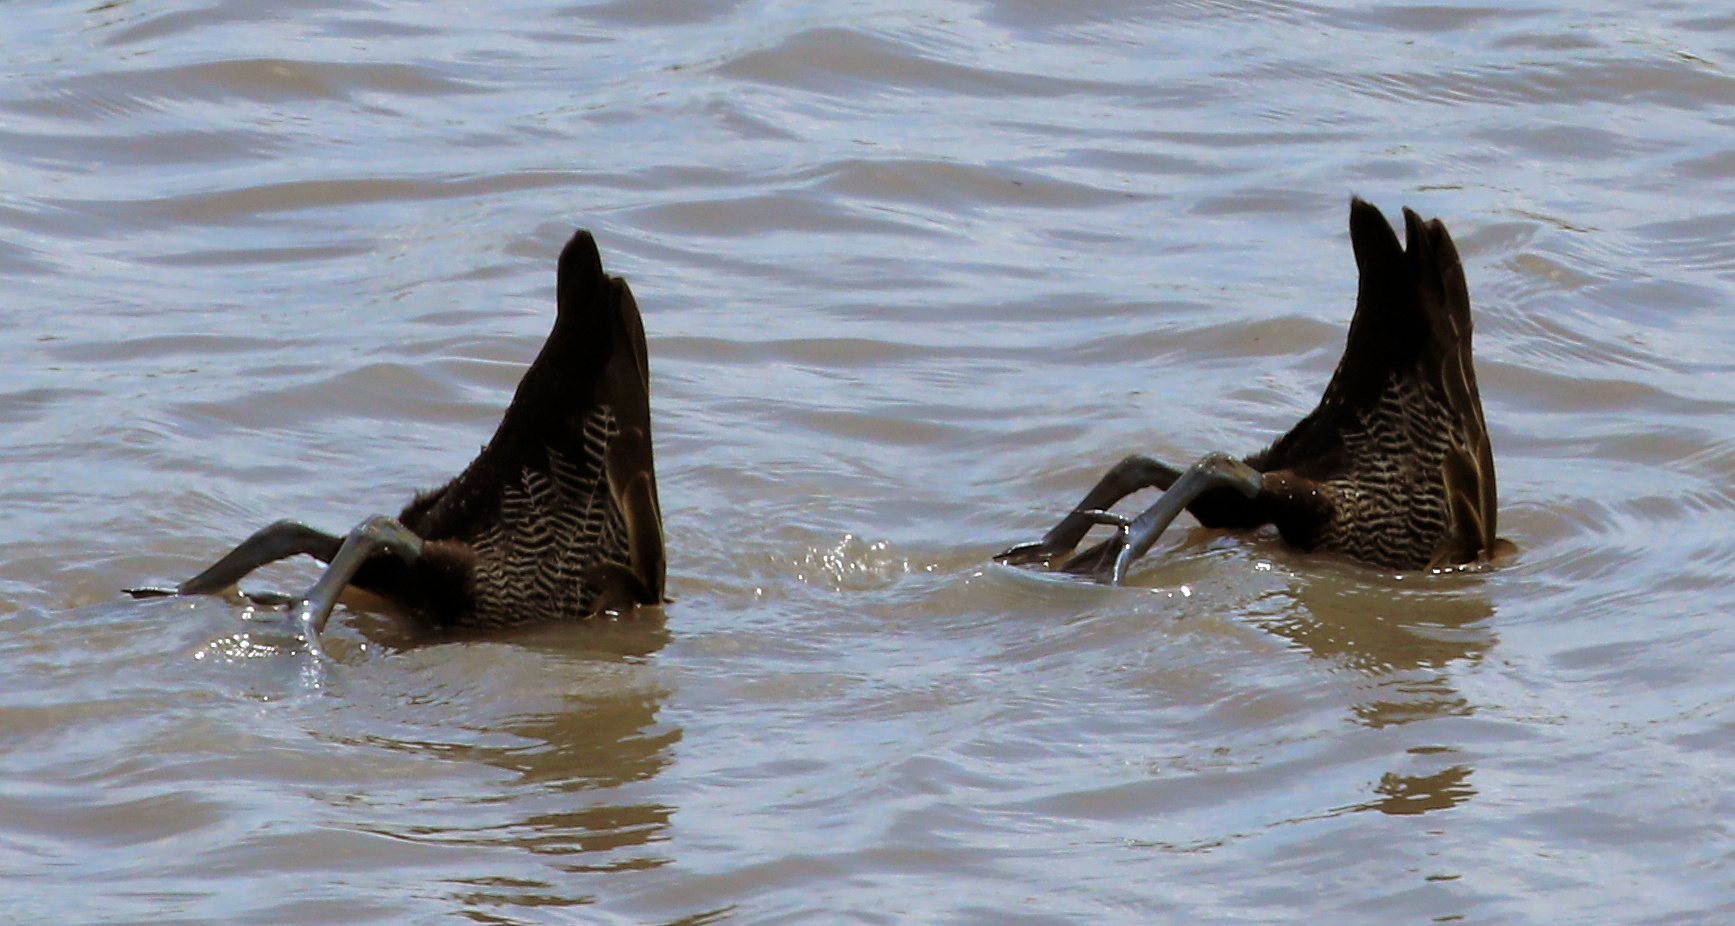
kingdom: Animalia
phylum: Chordata
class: Aves
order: Anseriformes
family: Anatidae
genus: Dendrocygna
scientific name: Dendrocygna viduata
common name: White-faced whistling duck
